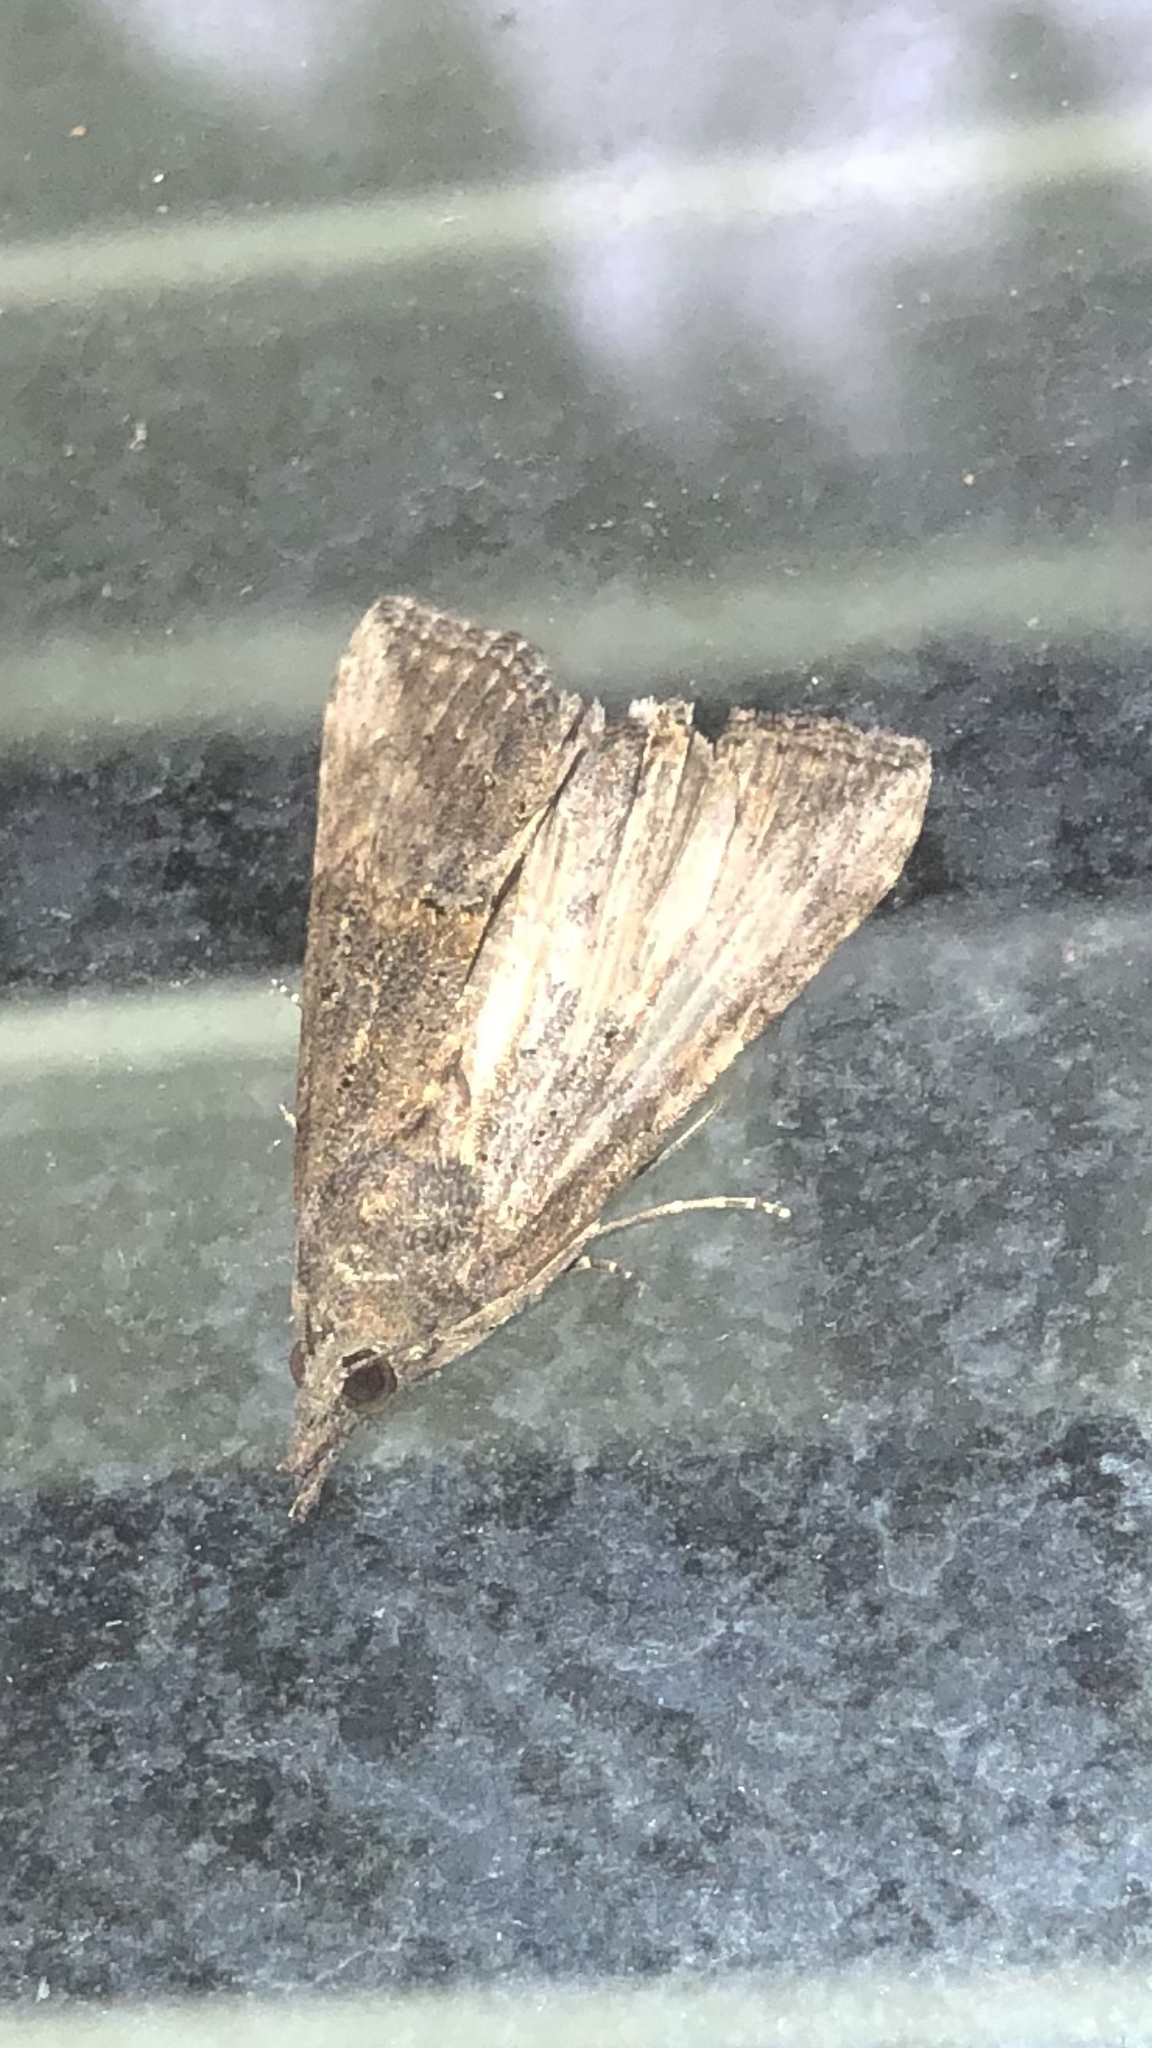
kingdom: Animalia
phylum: Arthropoda
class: Insecta
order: Lepidoptera
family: Erebidae
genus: Hypena
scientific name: Hypena scabra
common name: Green cloverworm
